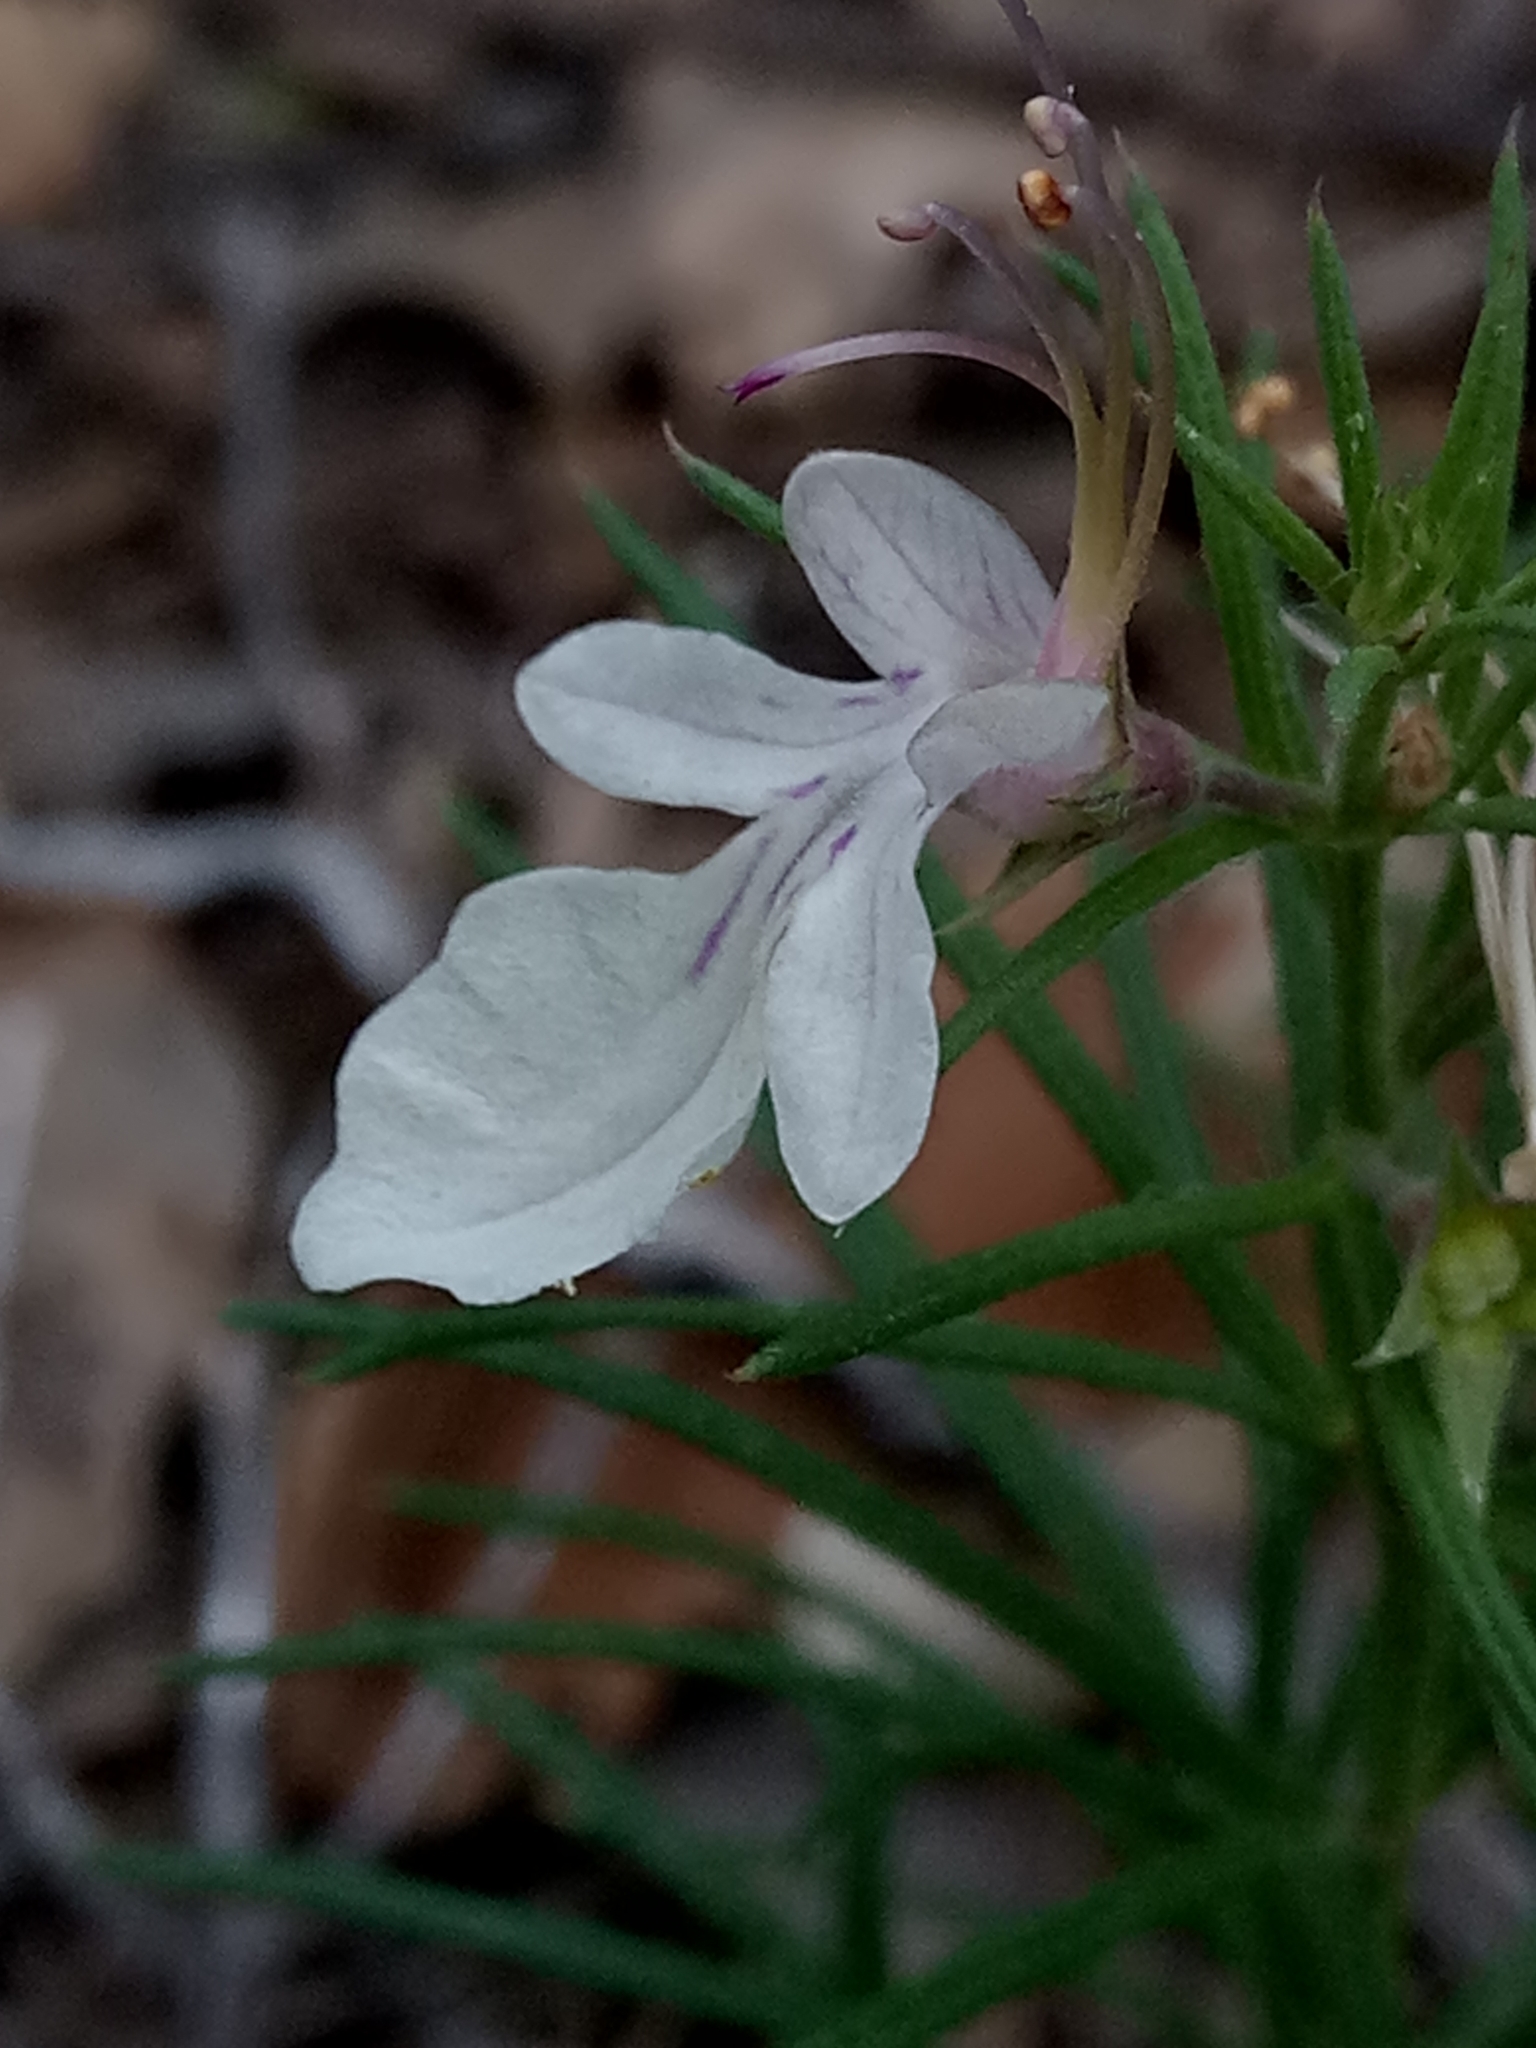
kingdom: Plantae
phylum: Tracheophyta
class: Magnoliopsida
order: Lamiales
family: Lamiaceae
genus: Teucrium
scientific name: Teucrium pseudochamaepitys
